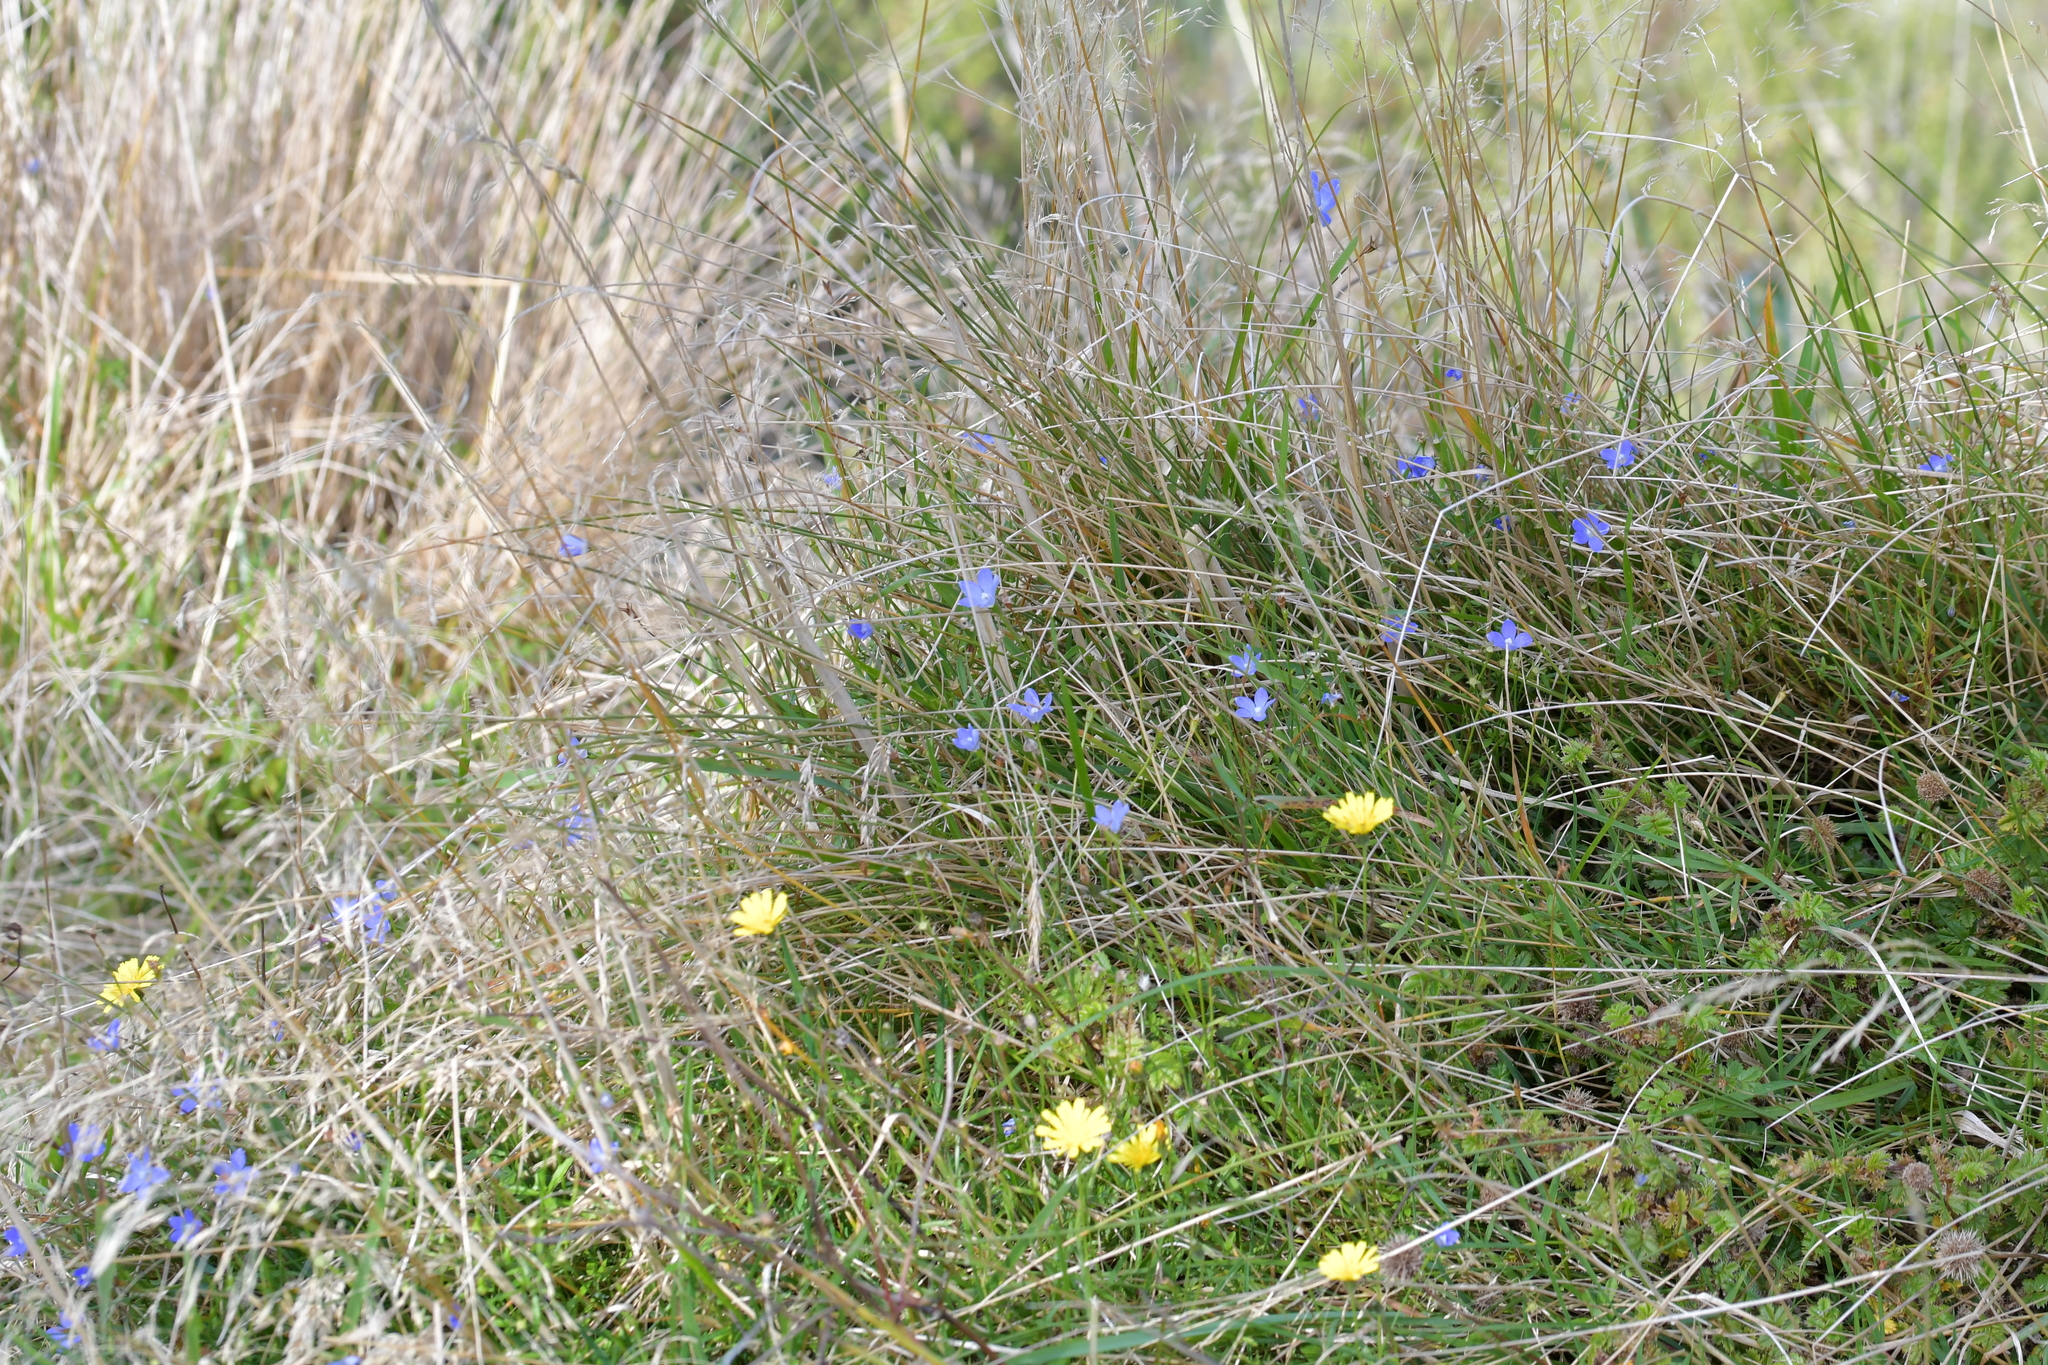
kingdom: Plantae
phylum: Tracheophyta
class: Magnoliopsida
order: Asterales
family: Campanulaceae
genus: Wahlenbergia
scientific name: Wahlenbergia violacea
